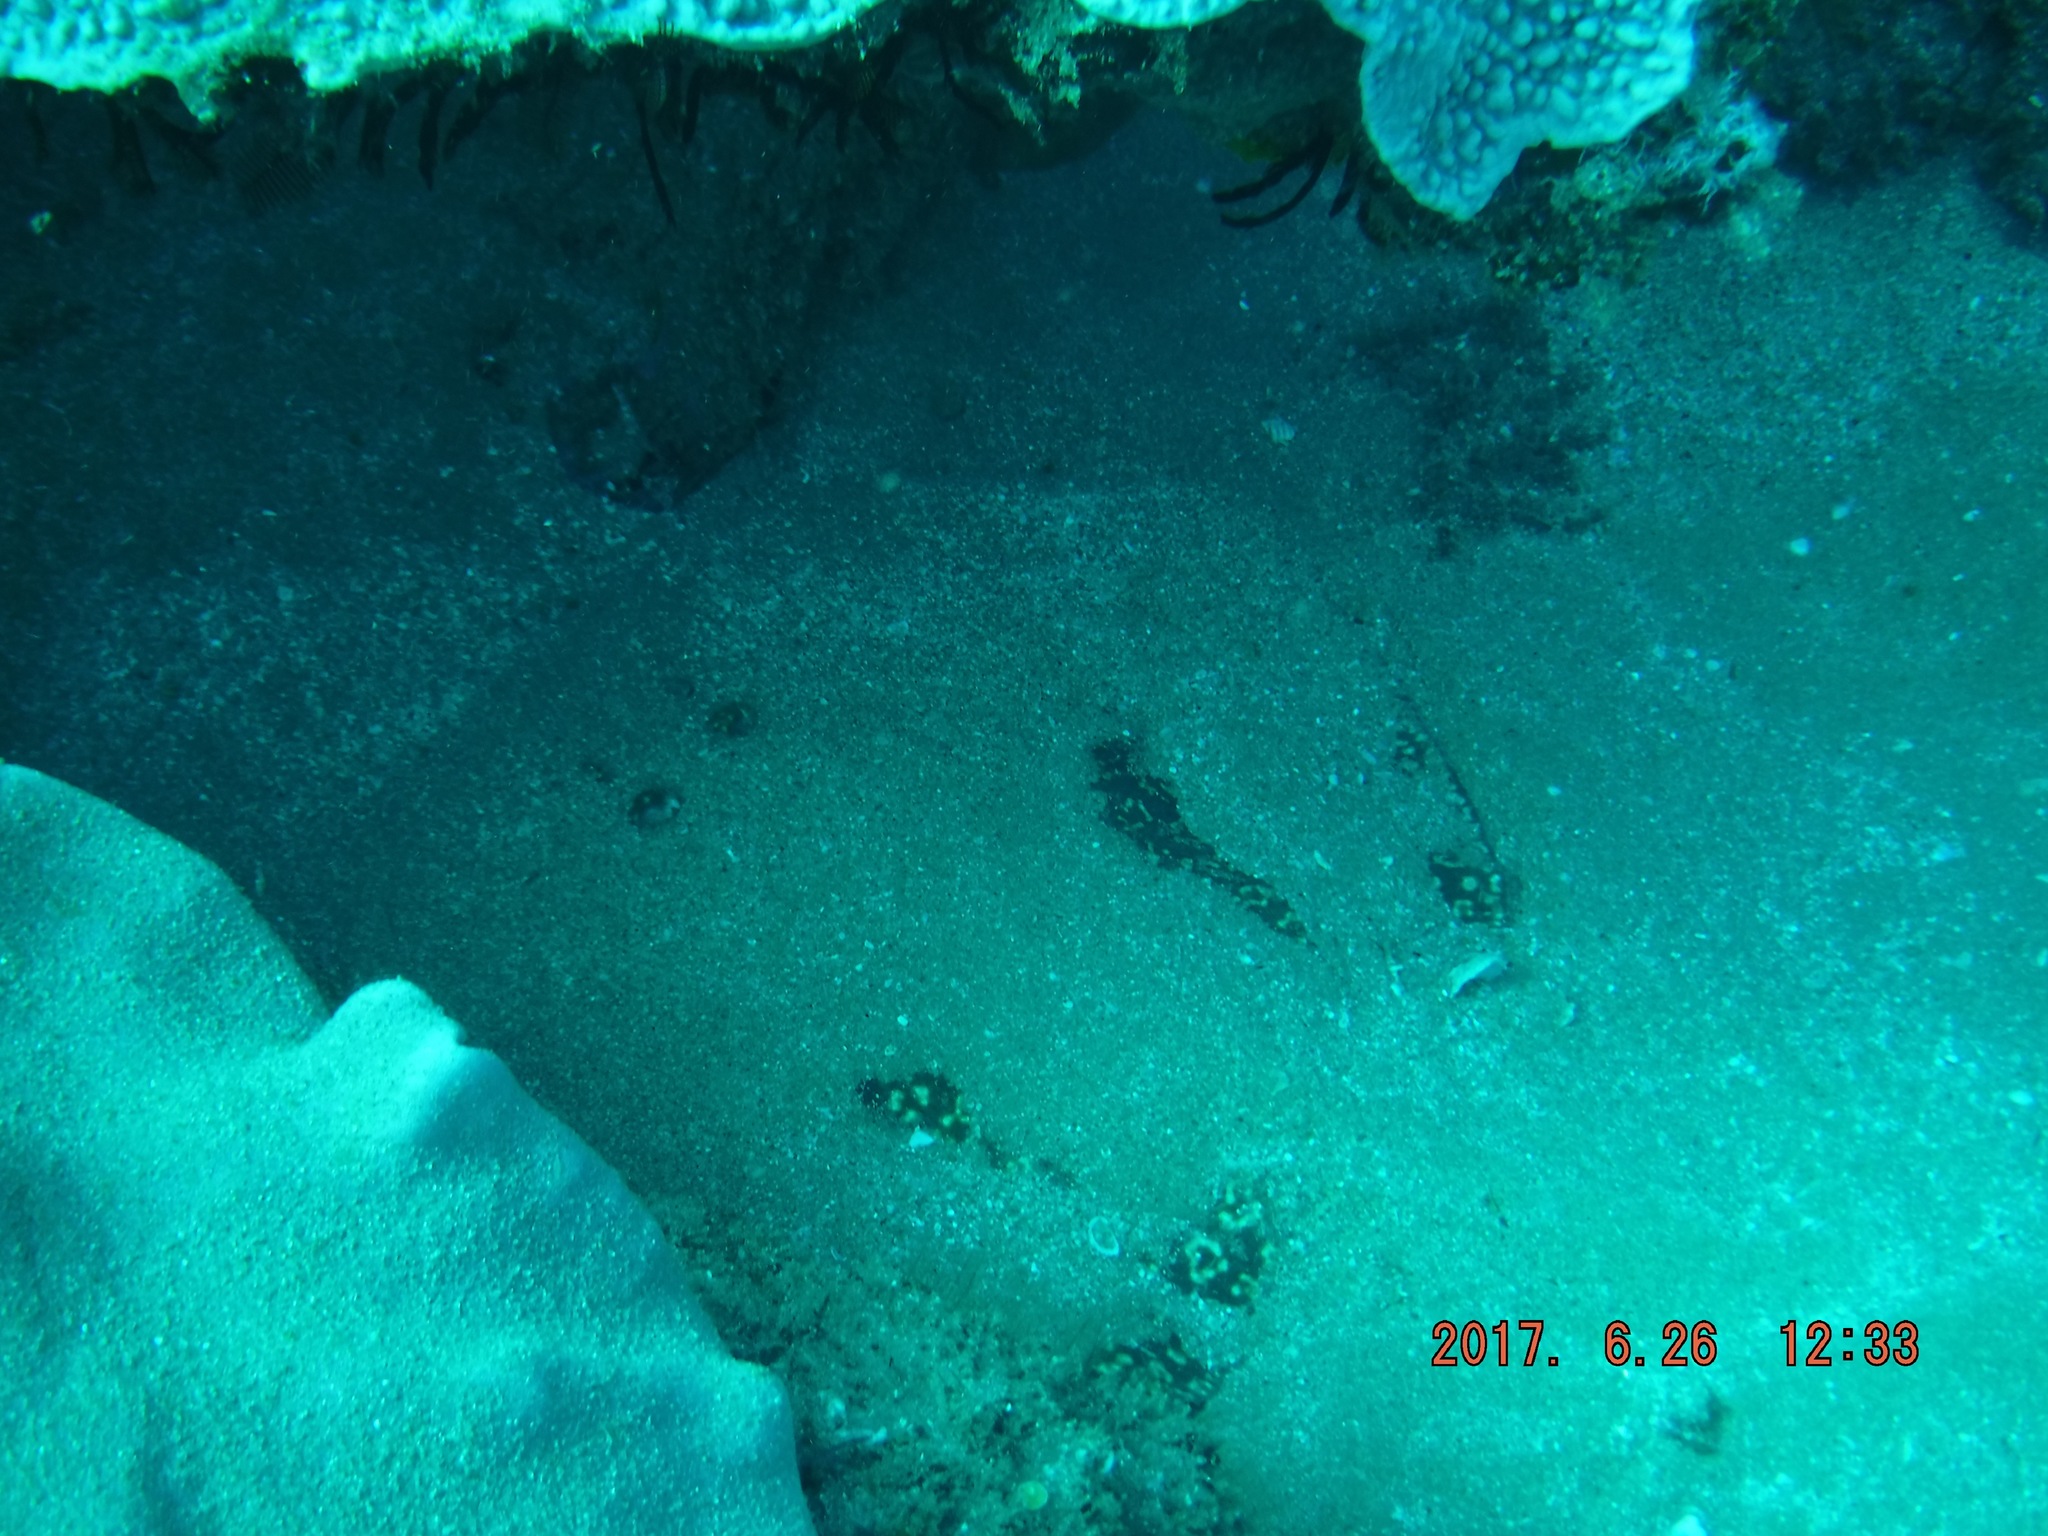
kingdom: Animalia
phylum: Chordata
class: Elasmobranchii
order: Torpediniformes
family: Torpedinidae
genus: Torpedo
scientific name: Torpedo sinuspersici
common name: Marbled electric ray
